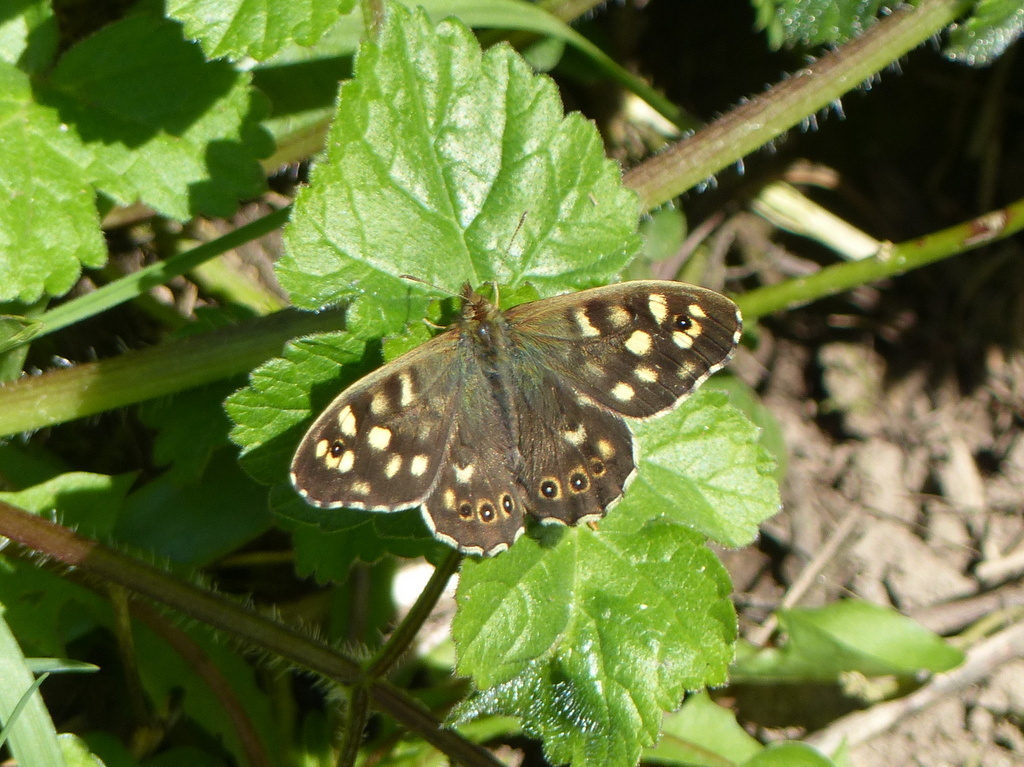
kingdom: Animalia
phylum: Arthropoda
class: Insecta
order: Lepidoptera
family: Nymphalidae
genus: Pararge
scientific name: Pararge aegeria
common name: Speckled wood
